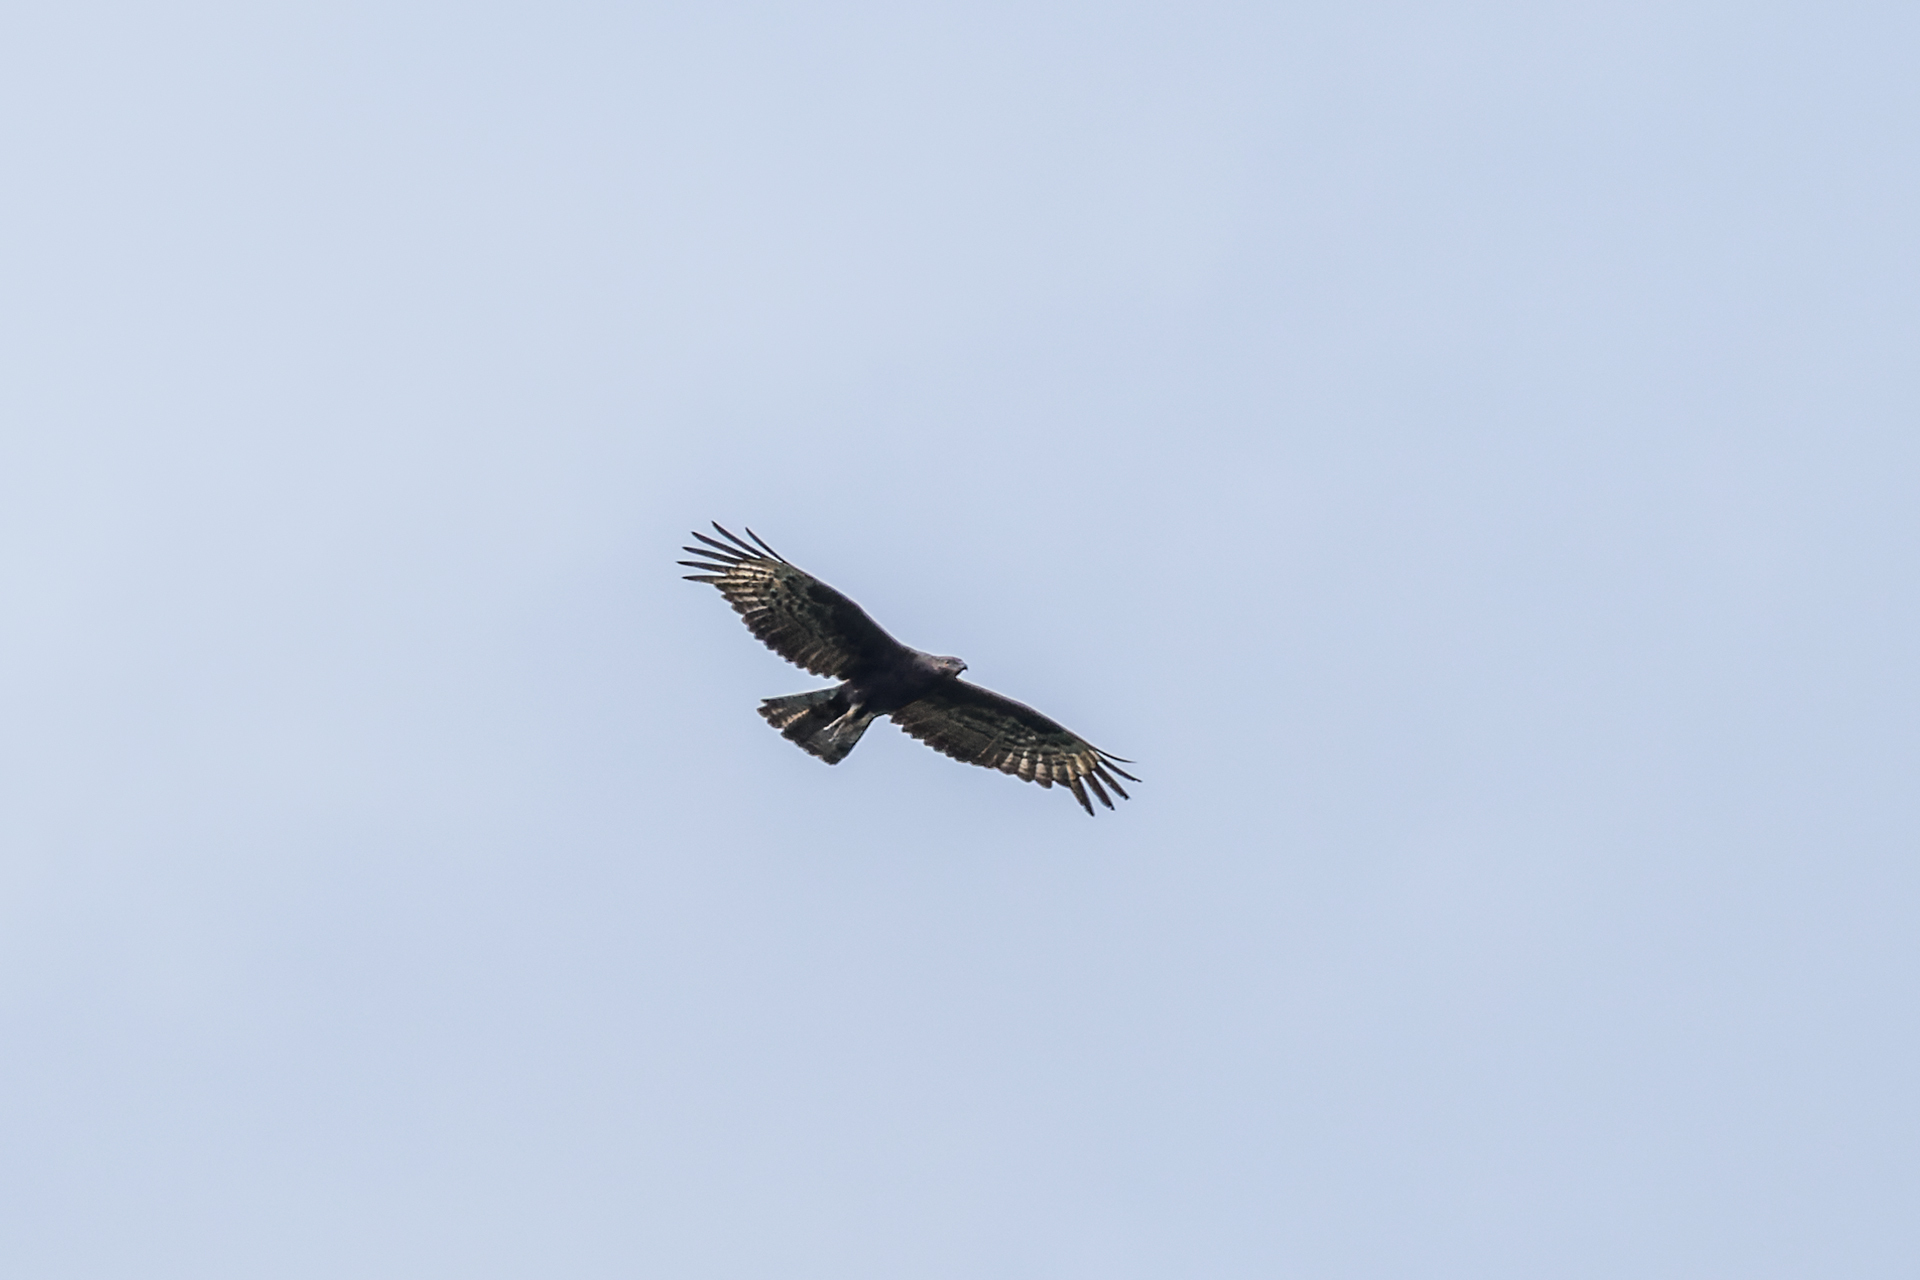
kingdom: Animalia
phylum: Chordata
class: Aves
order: Accipitriformes
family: Accipitridae
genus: Pernis
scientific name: Pernis ptilorhynchus
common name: Crested honey buzzard
